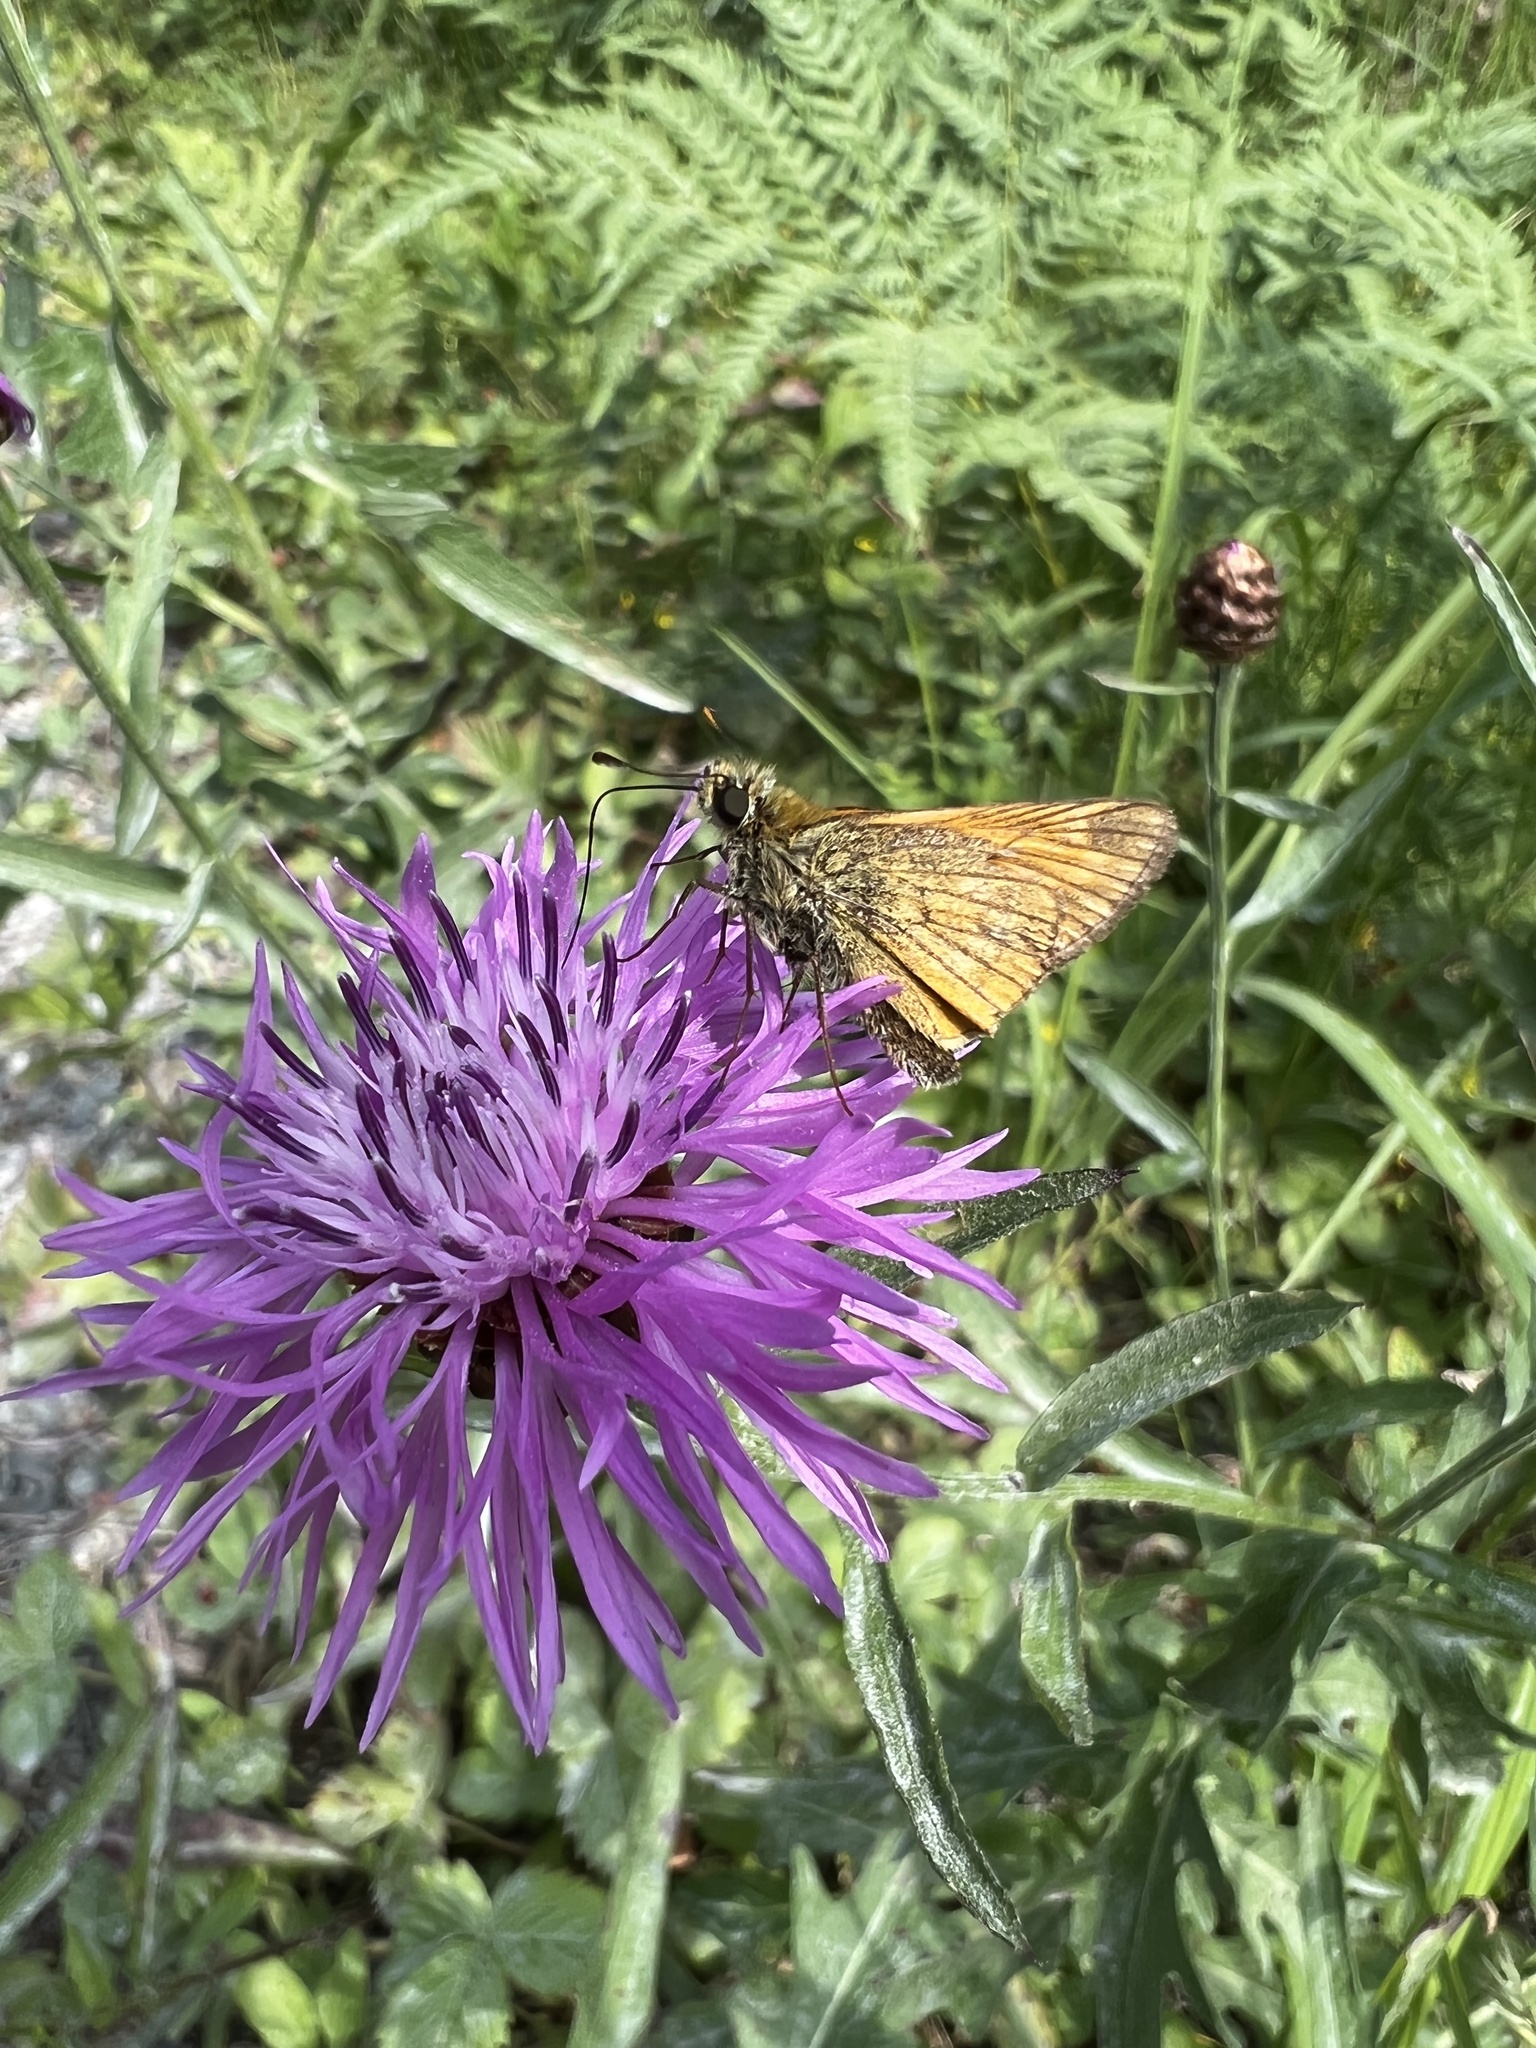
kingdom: Animalia
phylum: Arthropoda
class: Insecta
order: Lepidoptera
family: Hesperiidae
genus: Ochlodes
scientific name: Ochlodes venata
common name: Large skipper
